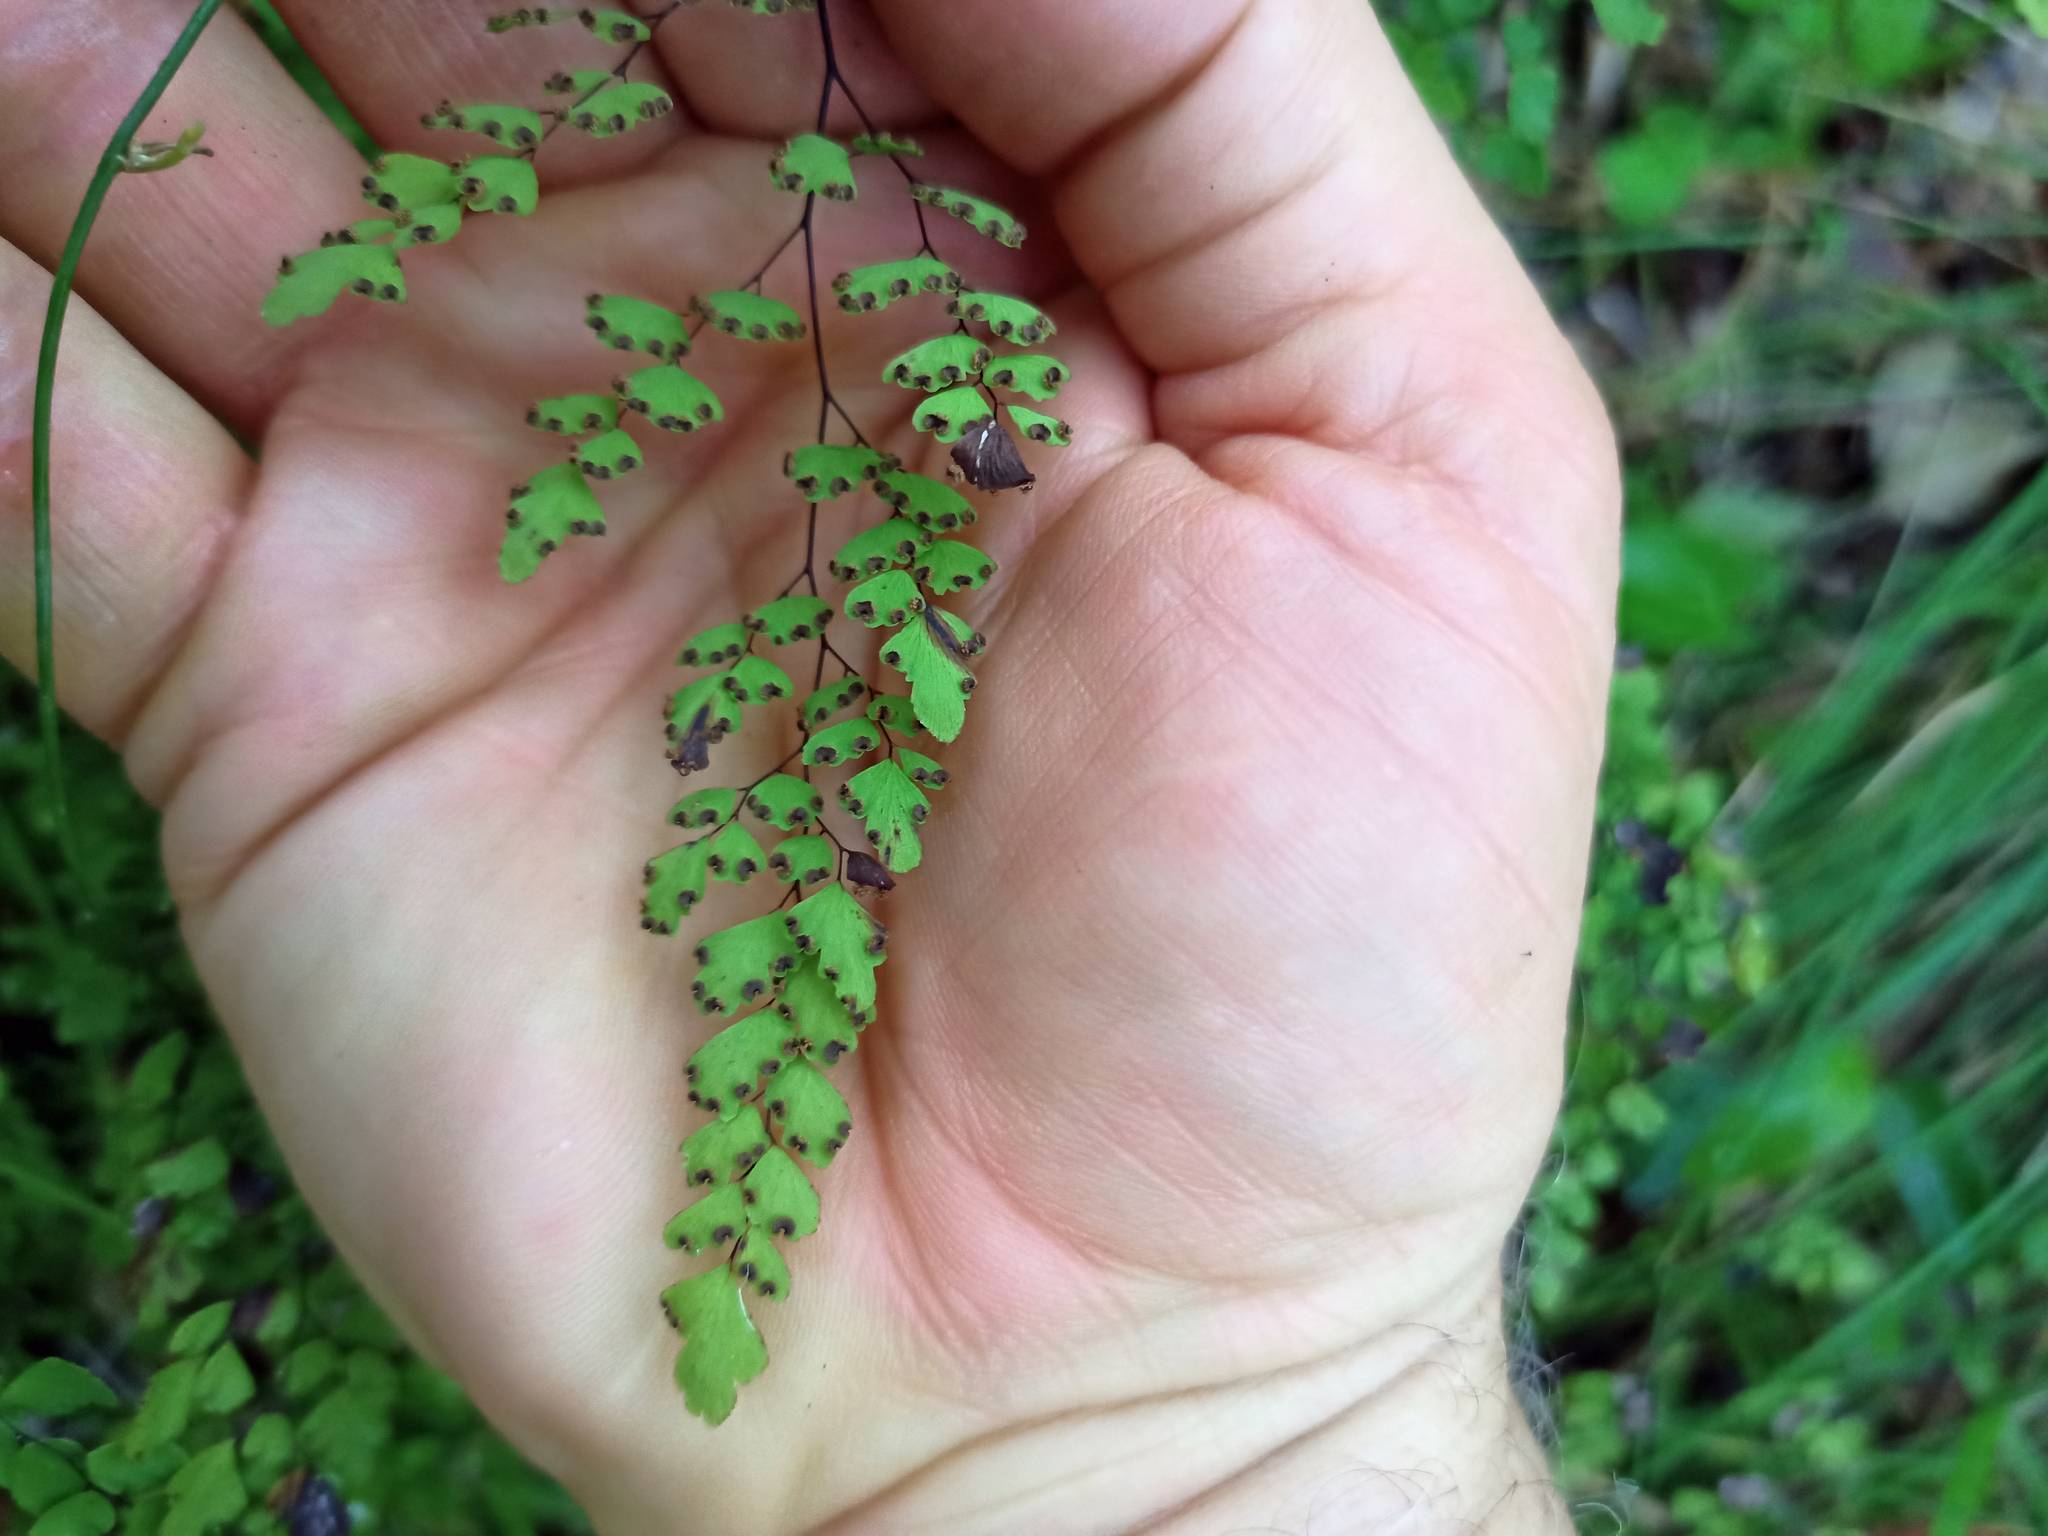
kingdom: Plantae
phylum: Tracheophyta
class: Polypodiopsida
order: Polypodiales
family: Pteridaceae
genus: Adiantum
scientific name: Adiantum aethiopicum
